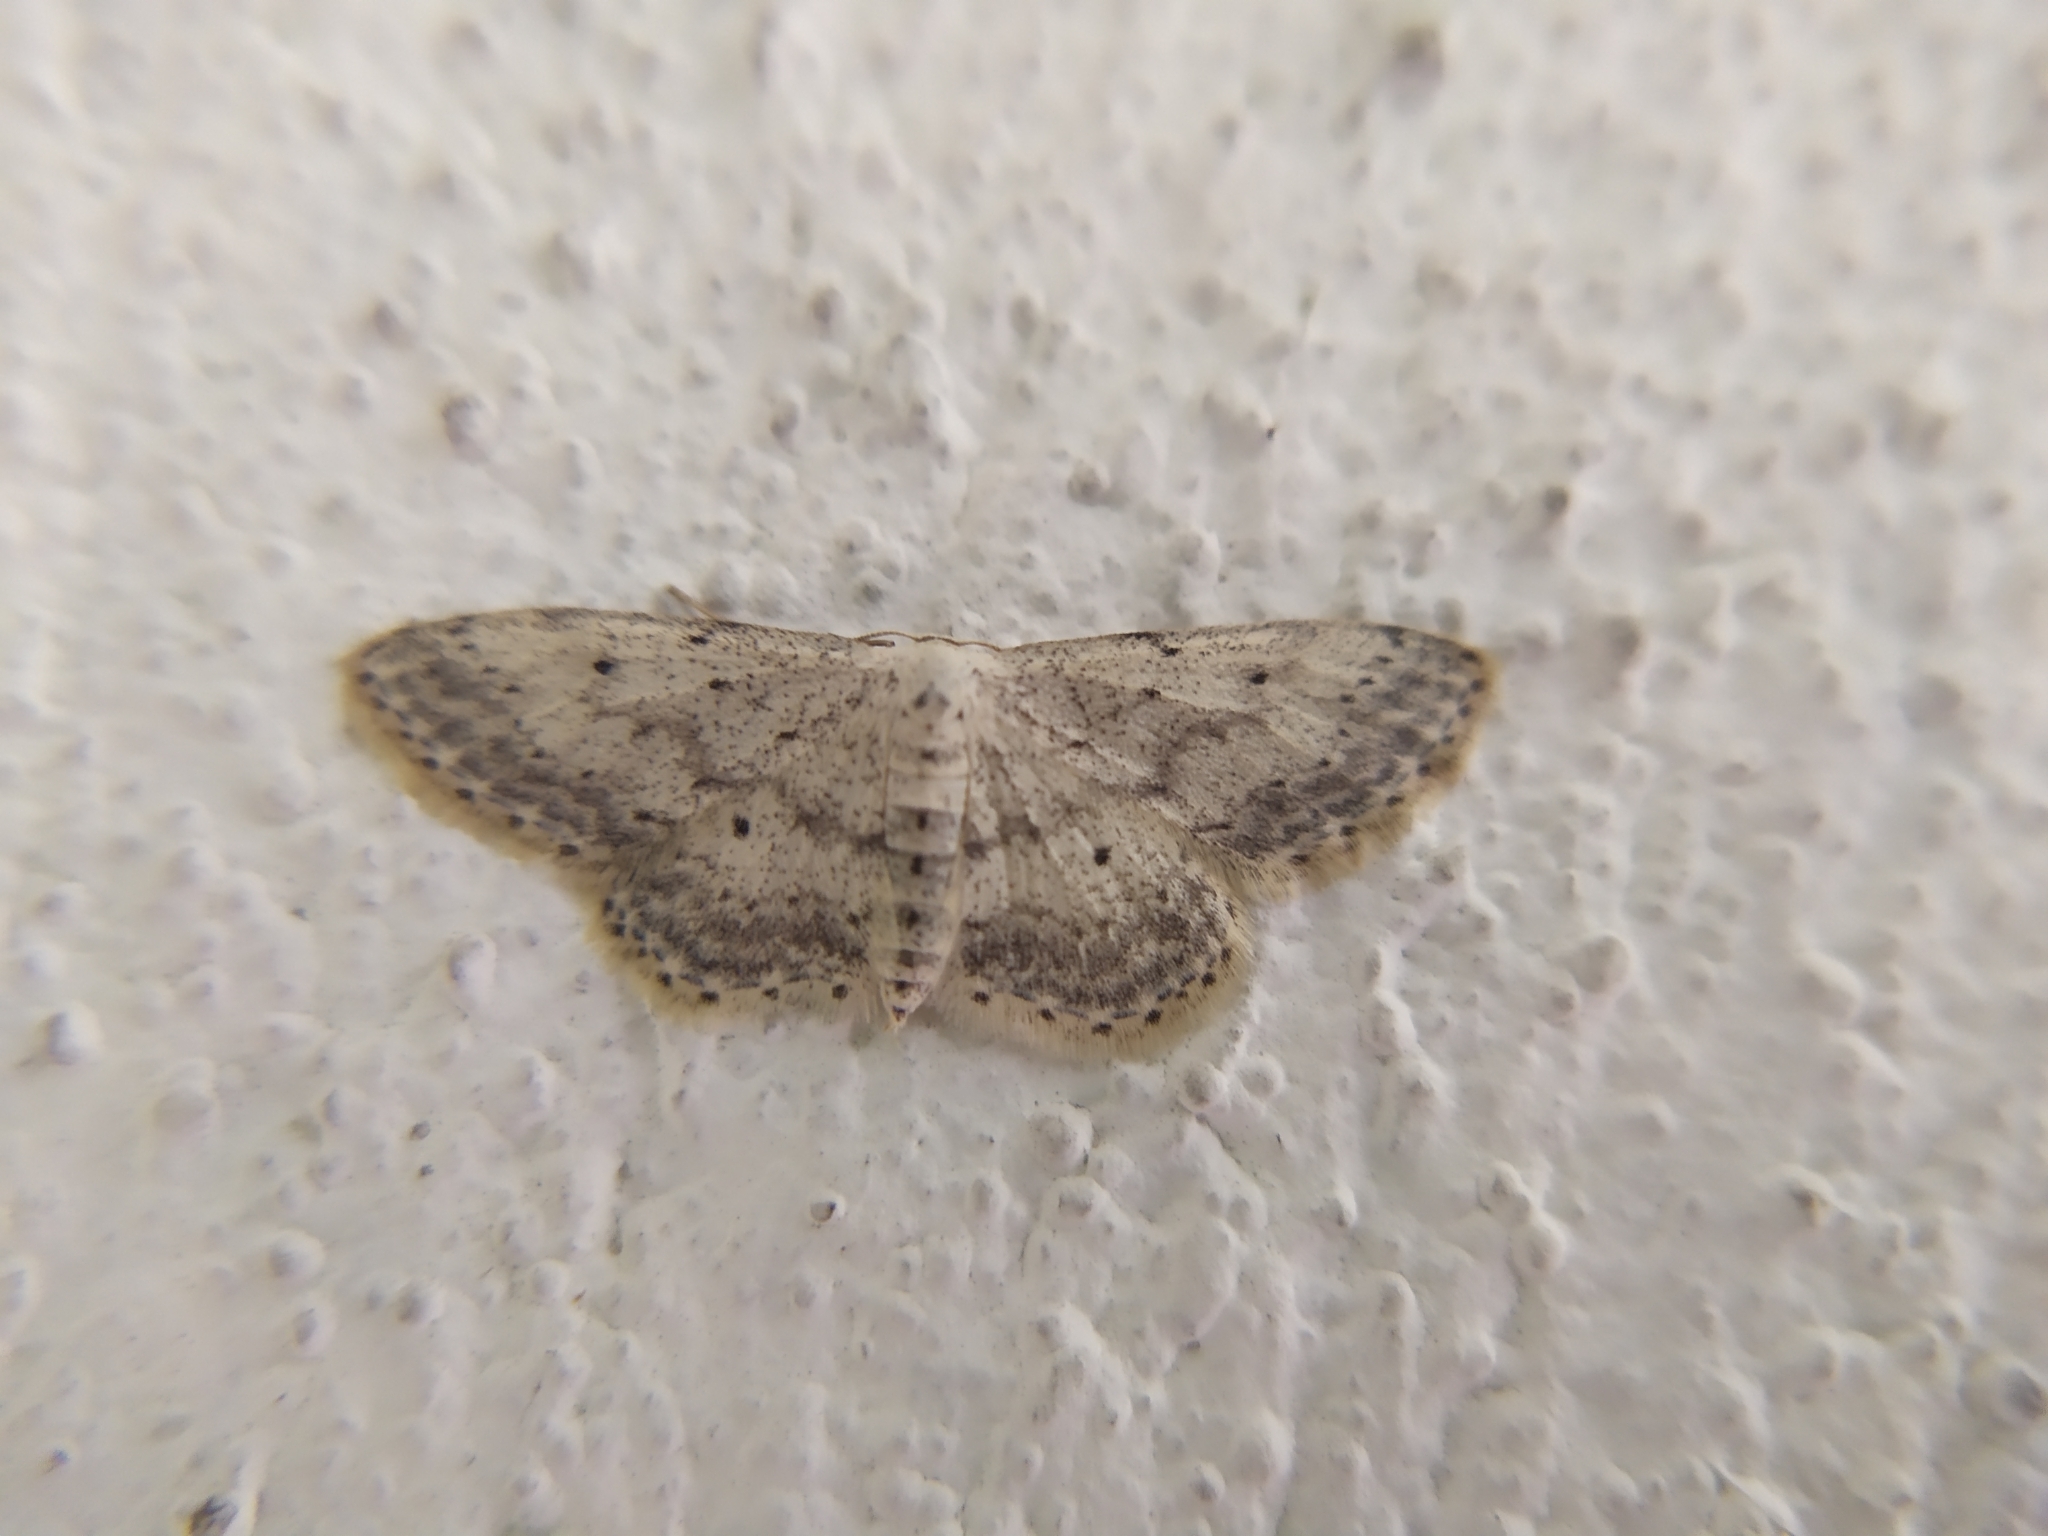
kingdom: Animalia
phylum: Arthropoda
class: Insecta
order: Lepidoptera
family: Geometridae
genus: Idaea
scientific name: Idaea seriata
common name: Small dusty wave
